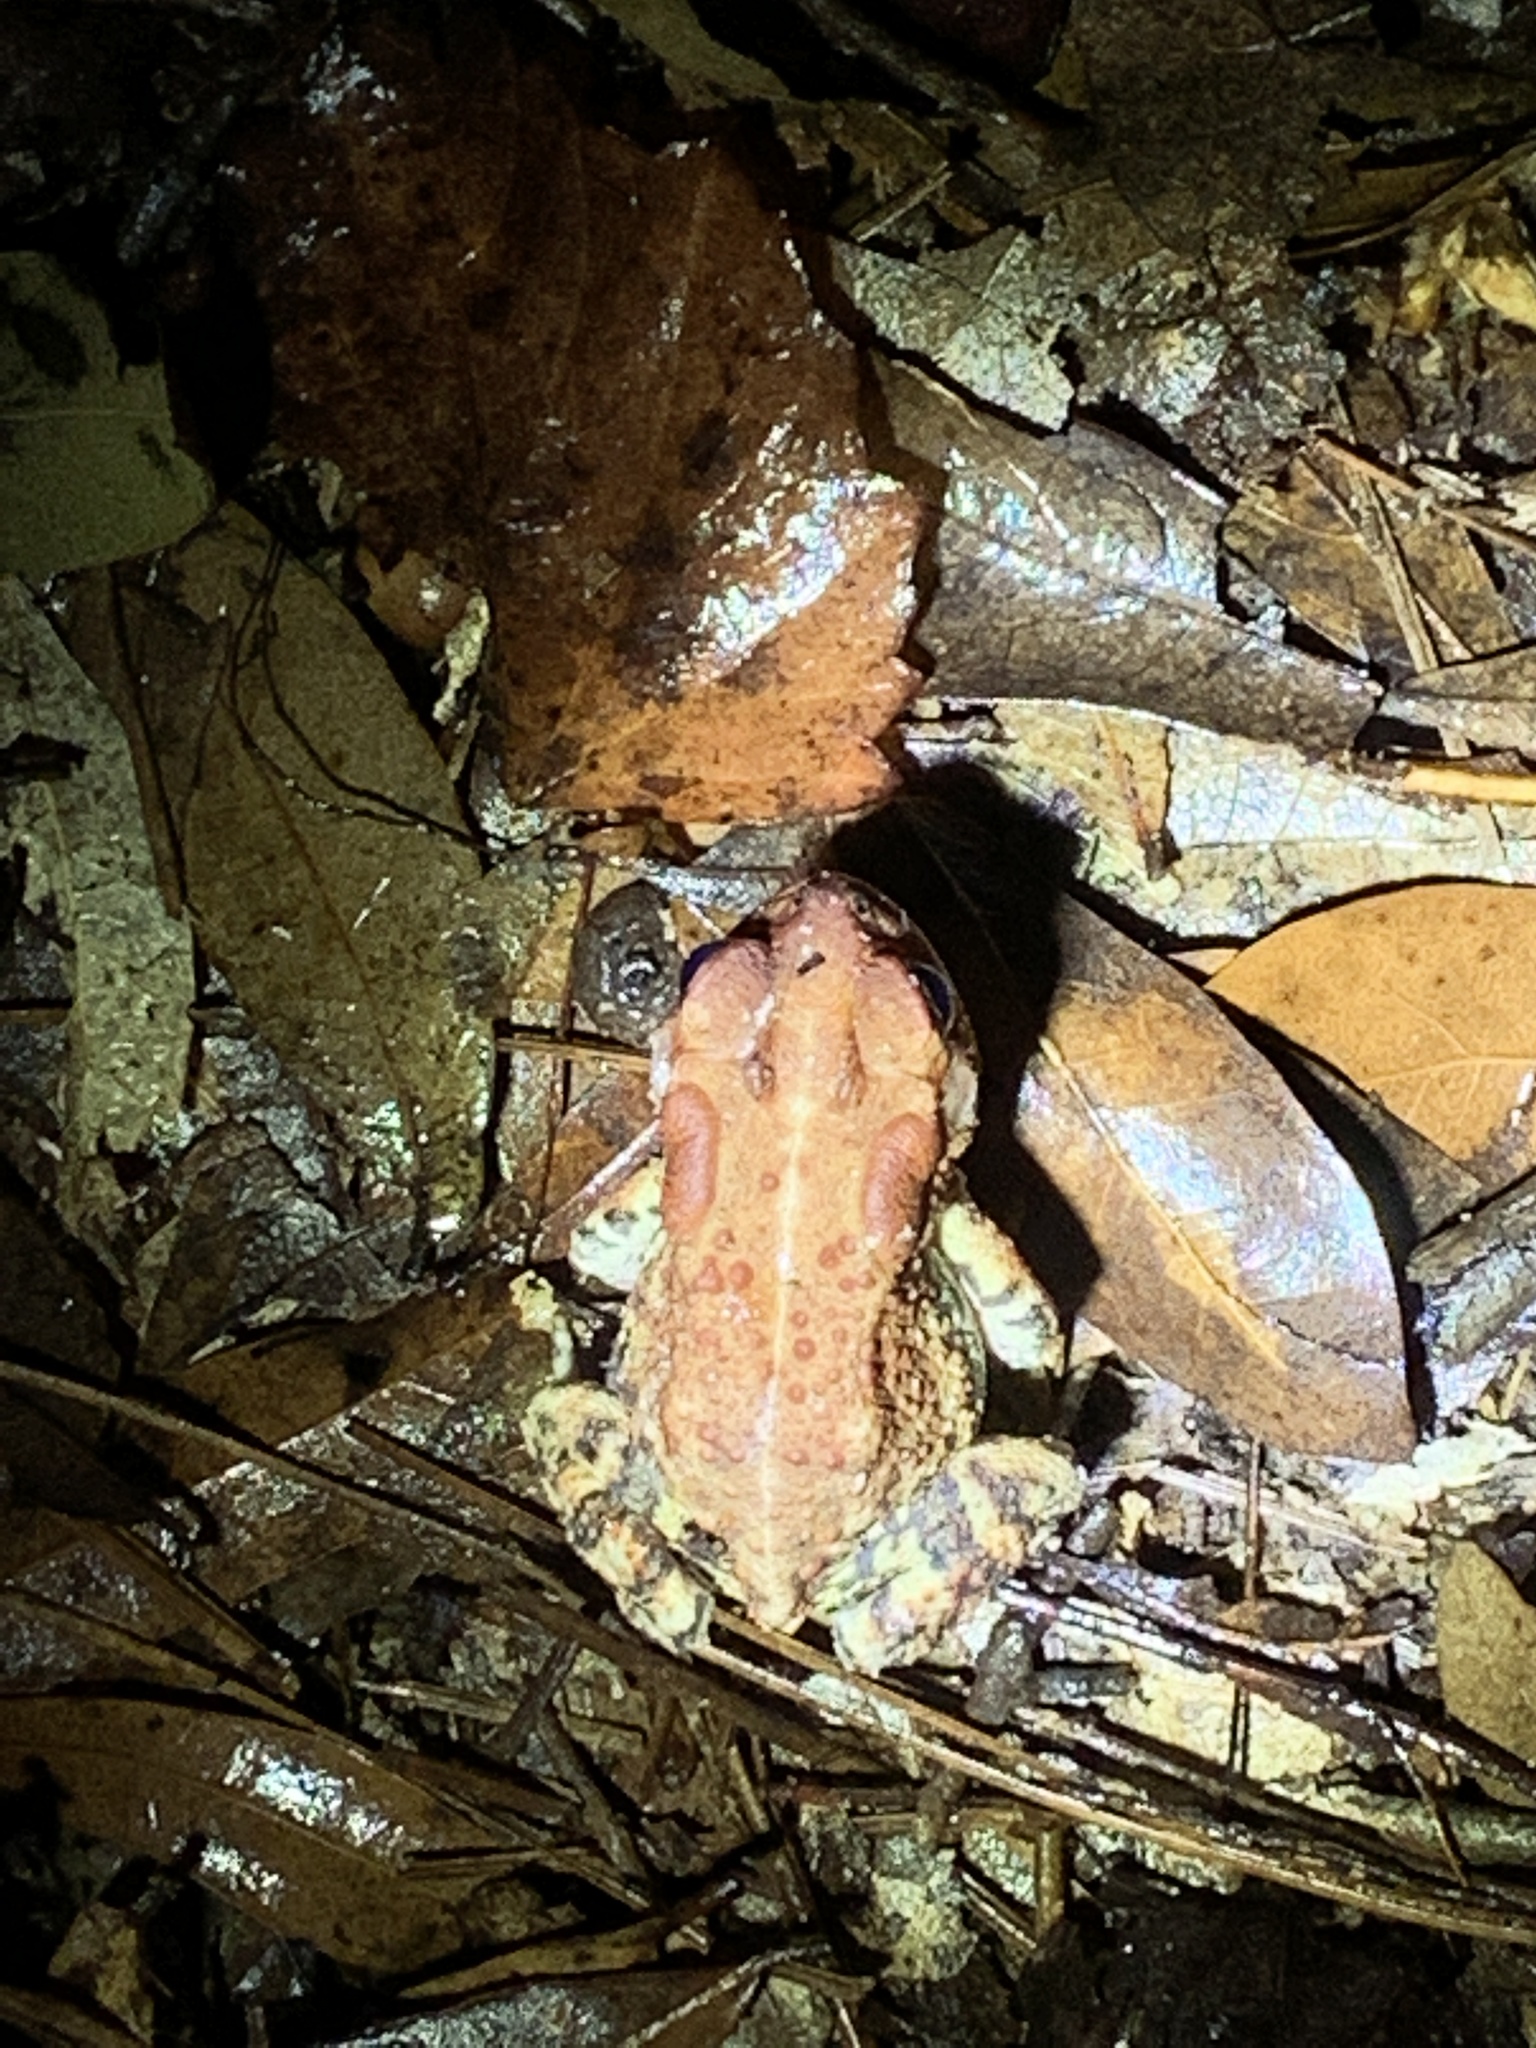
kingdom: Animalia
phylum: Chordata
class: Amphibia
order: Anura
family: Bufonidae
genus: Anaxyrus
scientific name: Anaxyrus terrestris
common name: Southern toad
